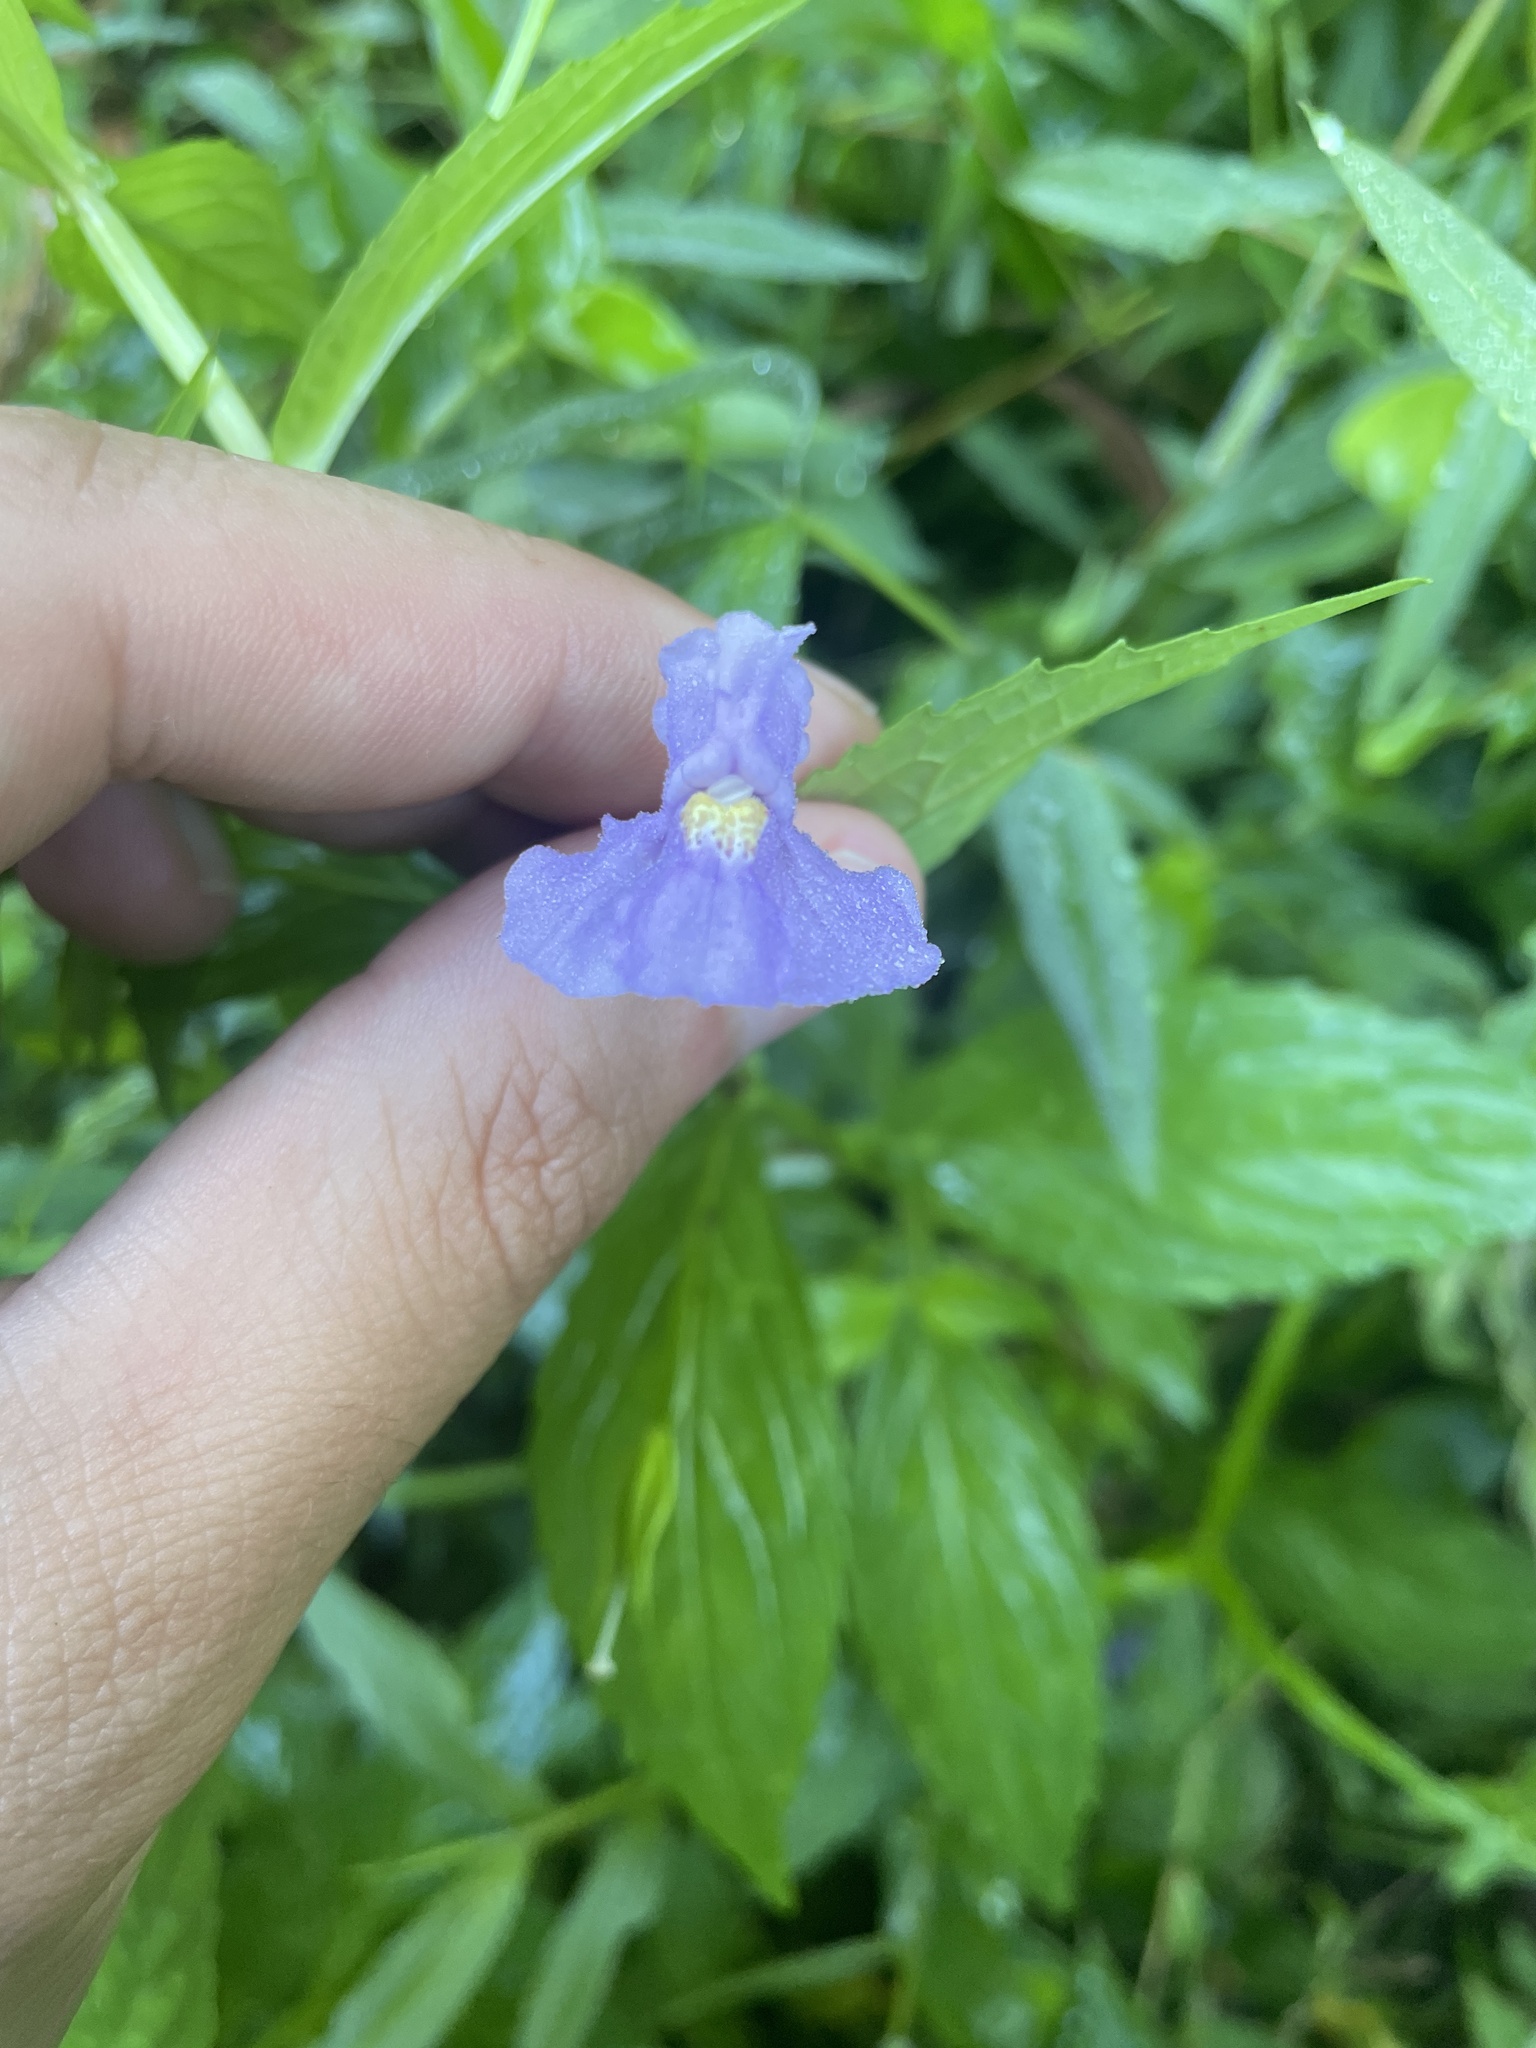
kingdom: Plantae
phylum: Tracheophyta
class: Magnoliopsida
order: Lamiales
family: Phrymaceae
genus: Mimulus
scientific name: Mimulus ringens
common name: Allegheny monkeyflower
